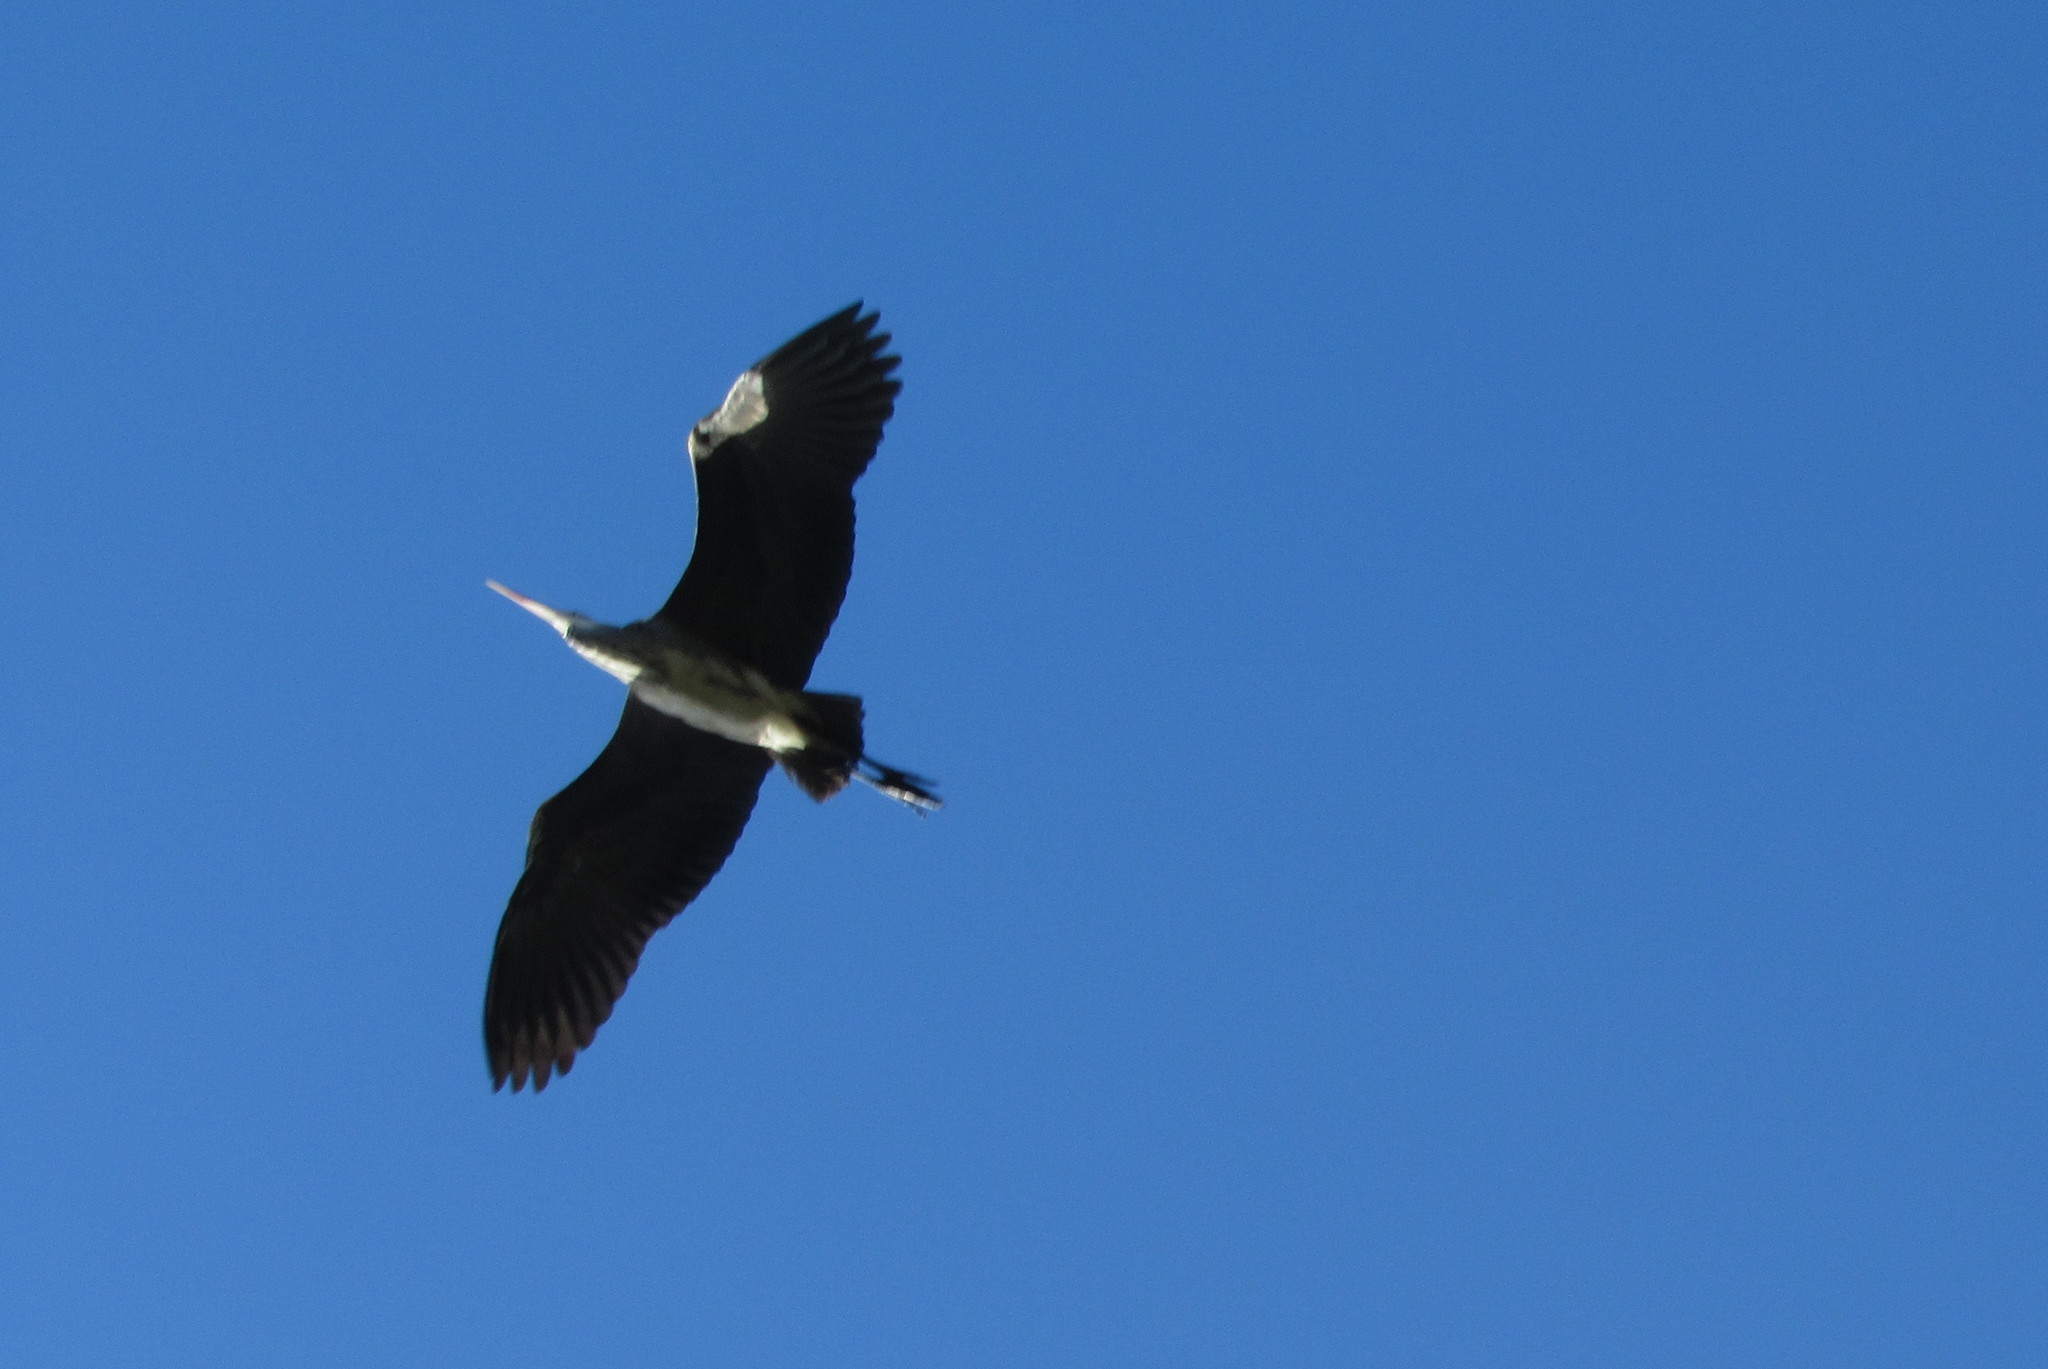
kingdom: Animalia
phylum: Chordata
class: Aves
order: Pelecaniformes
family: Ardeidae
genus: Ardea
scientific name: Ardea cinerea
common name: Grey heron
